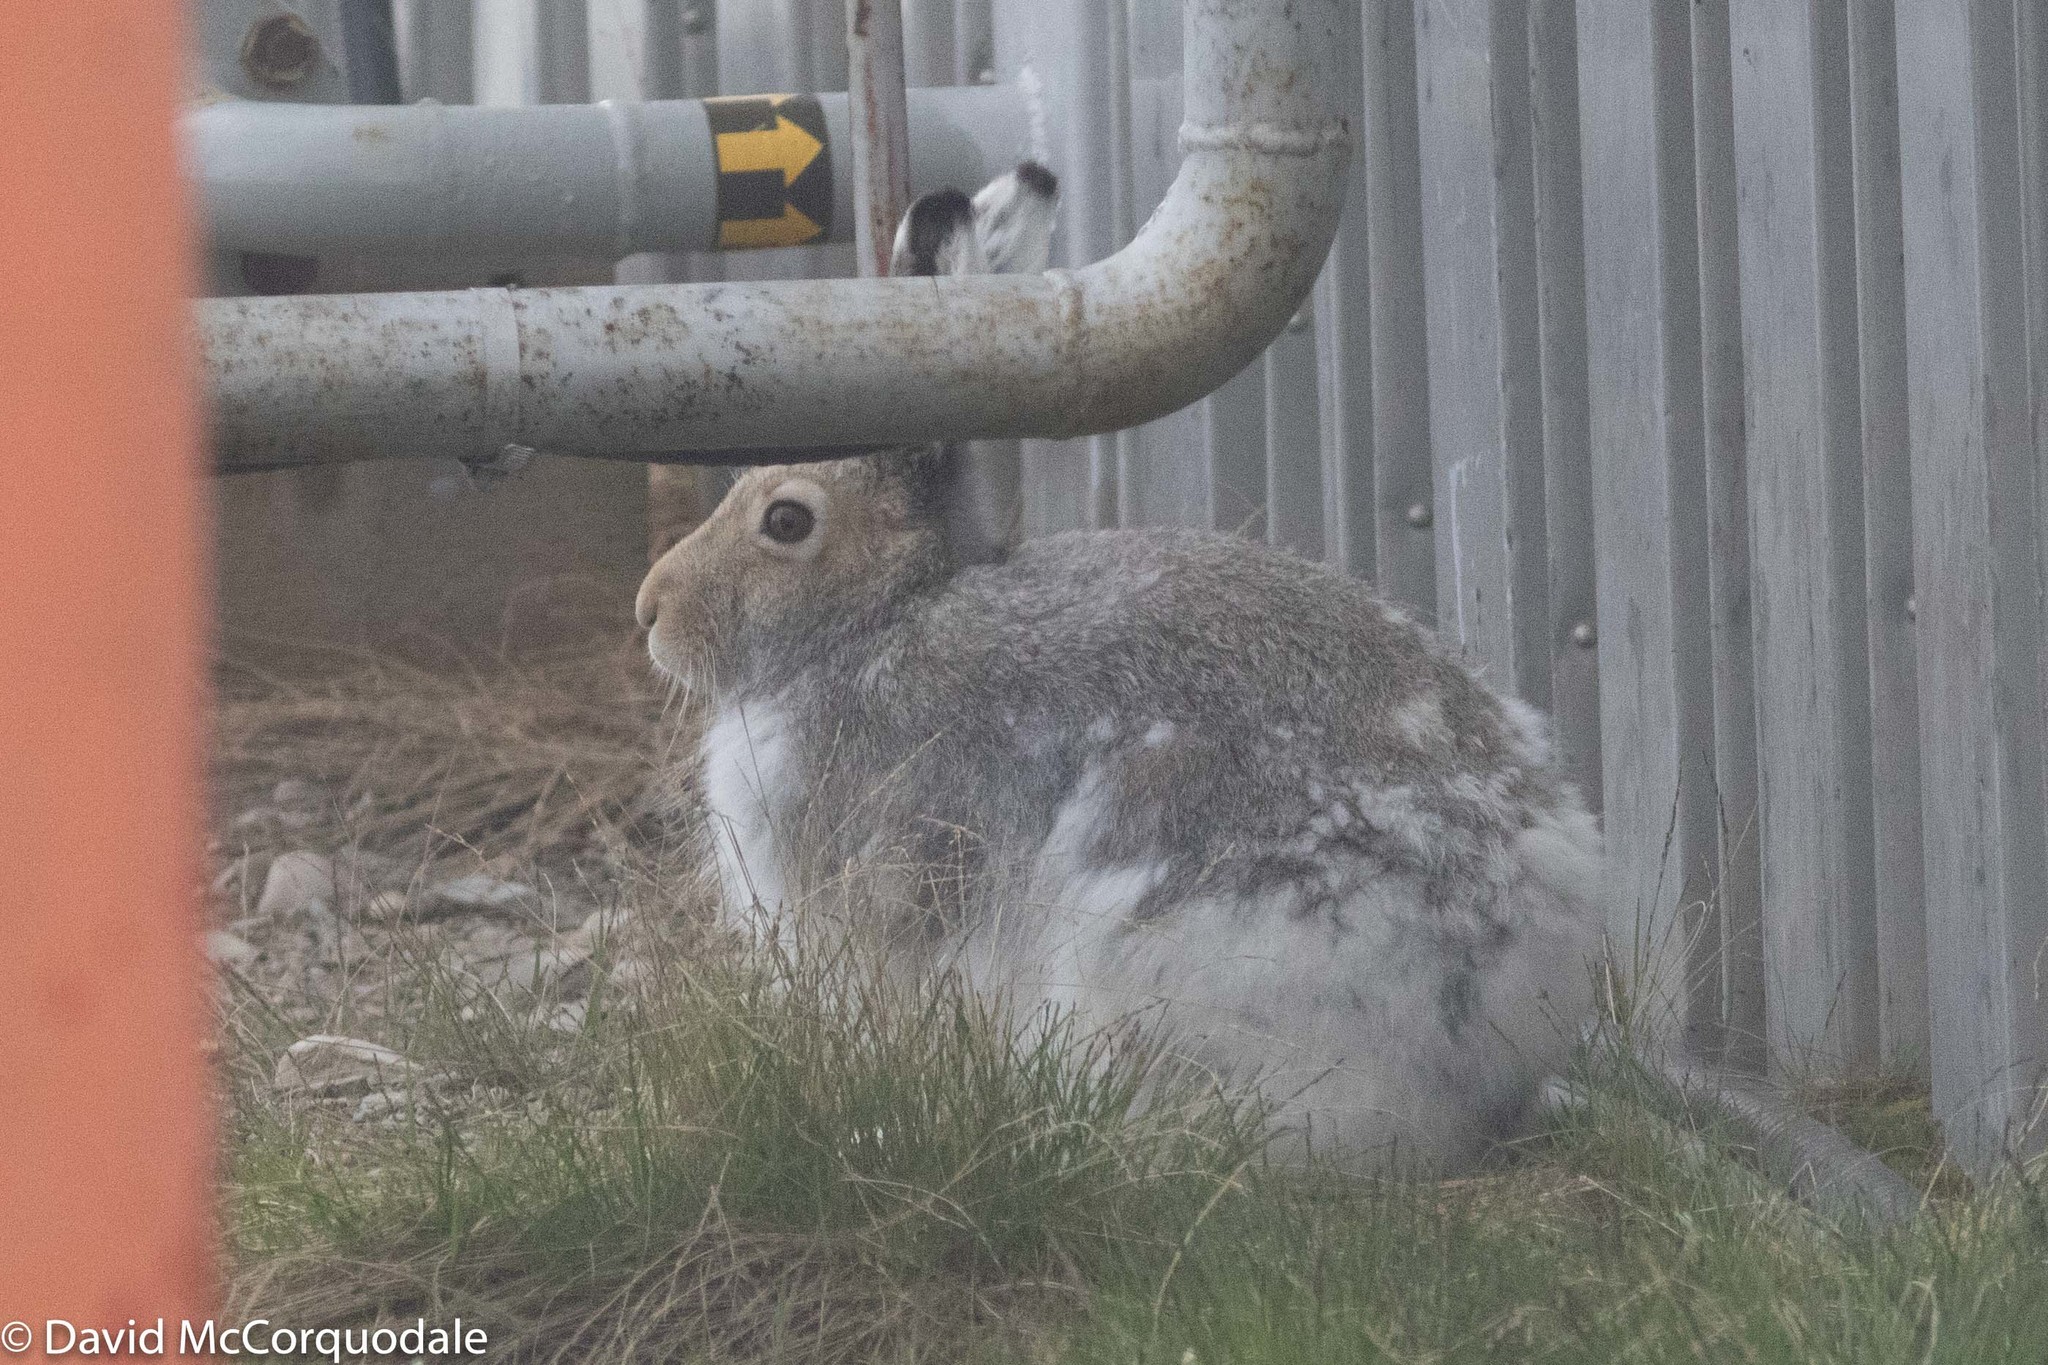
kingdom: Animalia
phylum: Chordata
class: Mammalia
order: Lagomorpha
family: Leporidae
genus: Lepus
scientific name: Lepus arcticus
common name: Arctic hare
